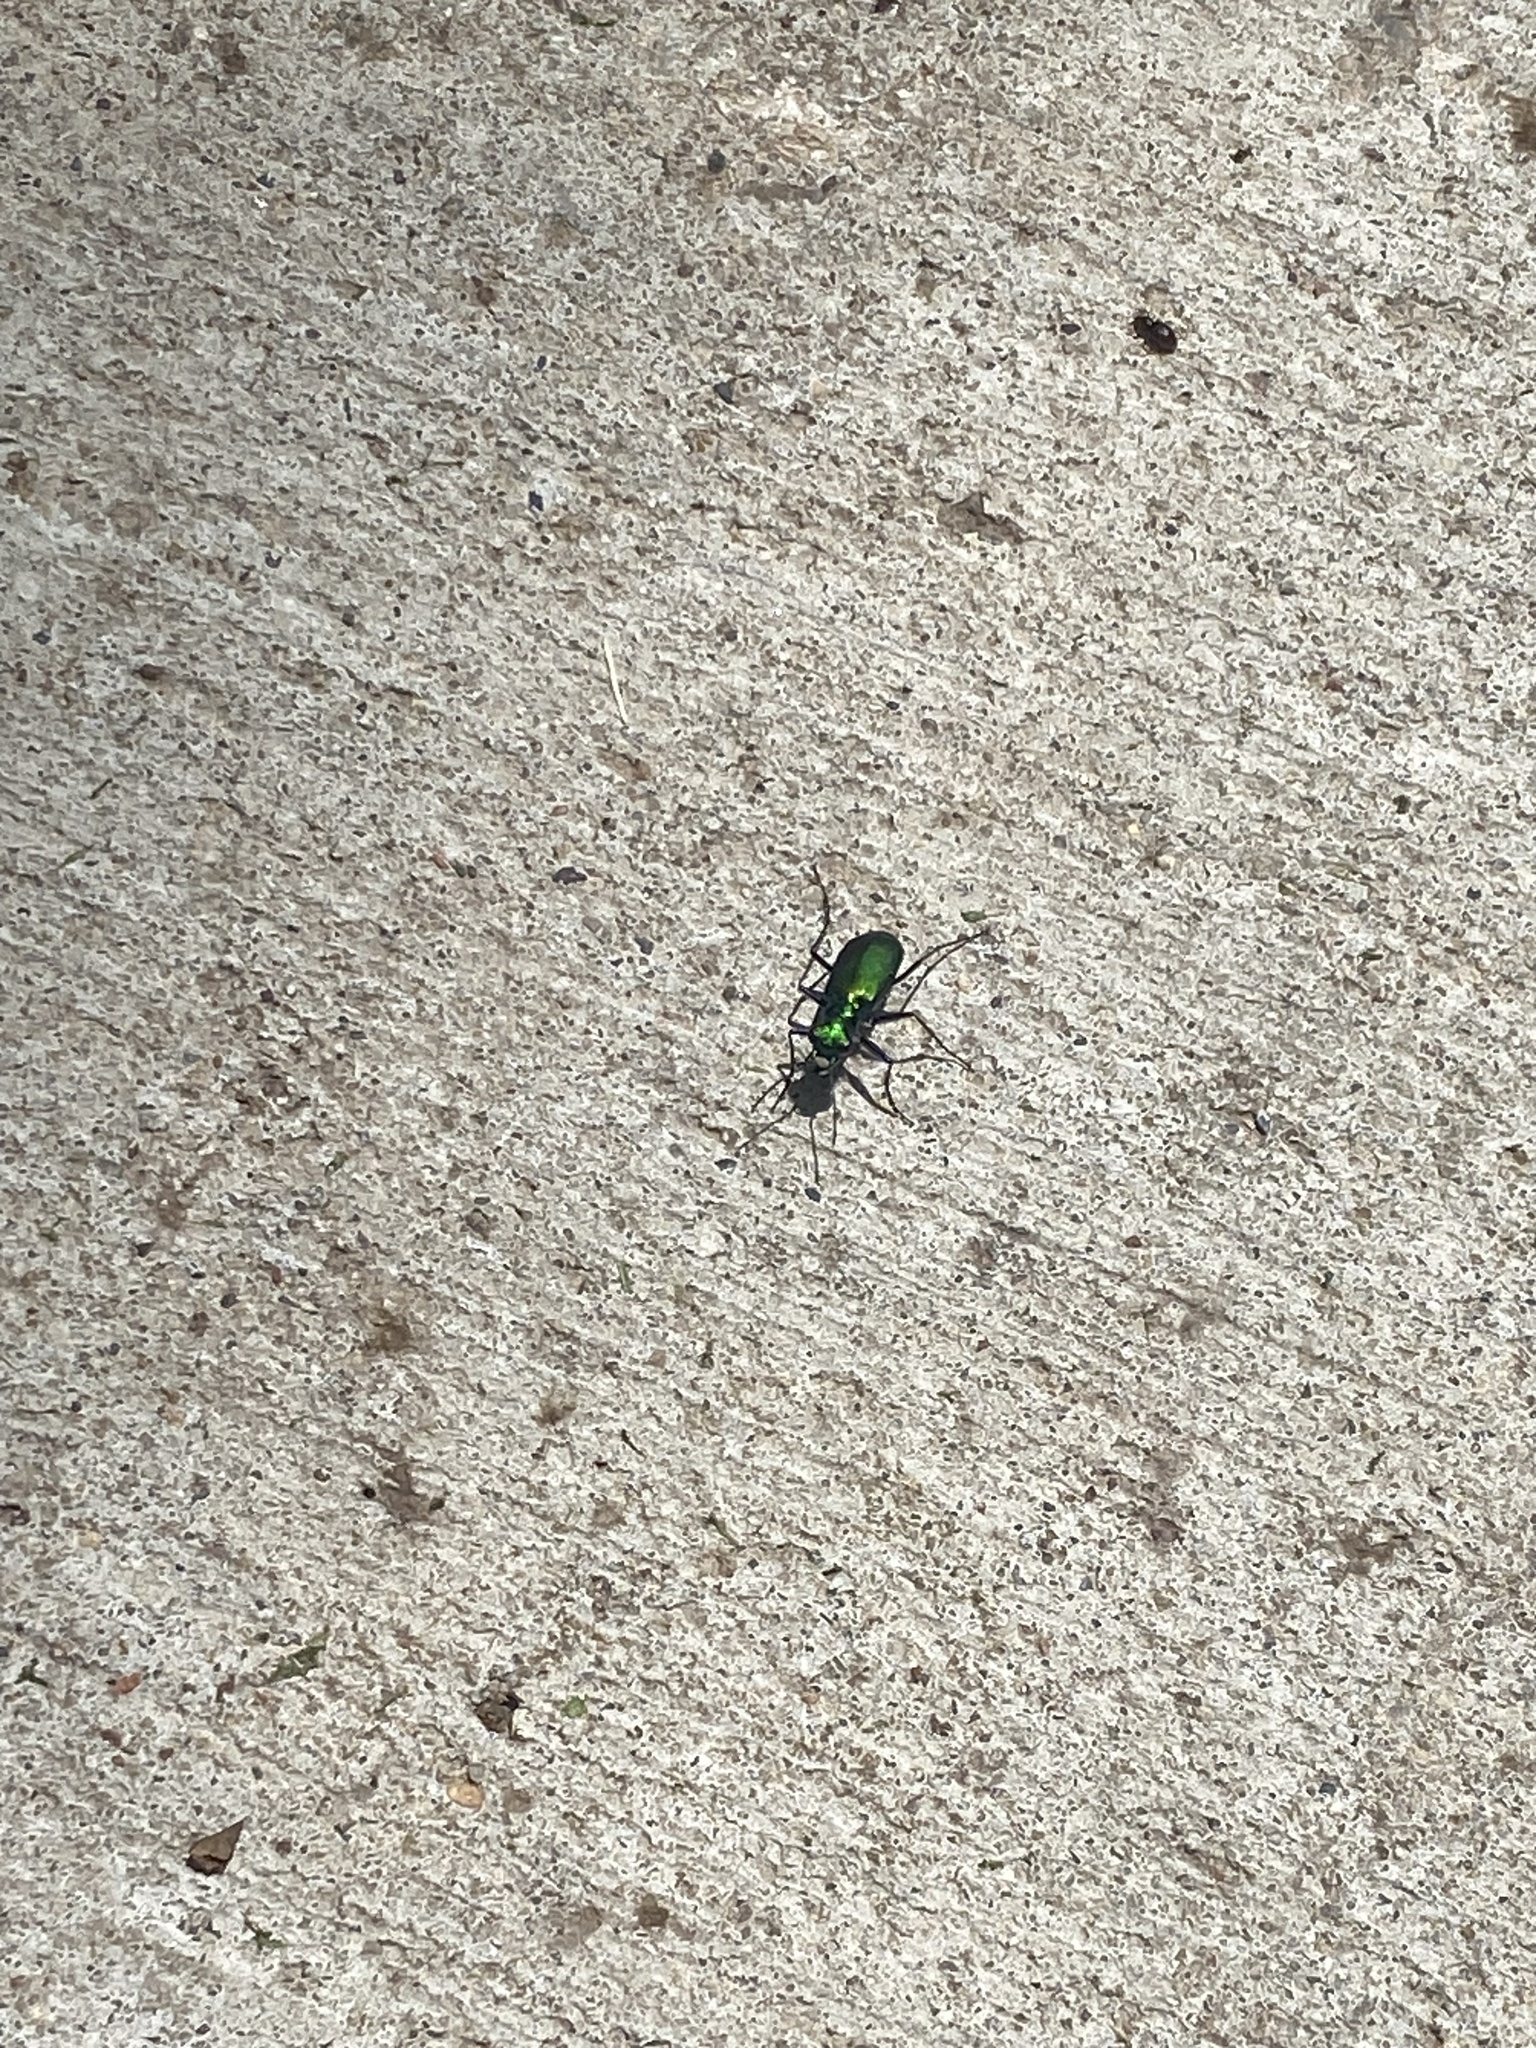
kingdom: Animalia
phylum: Arthropoda
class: Insecta
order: Coleoptera
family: Carabidae
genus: Cicindela
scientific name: Cicindela sexguttata
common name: Six-spotted tiger beetle
